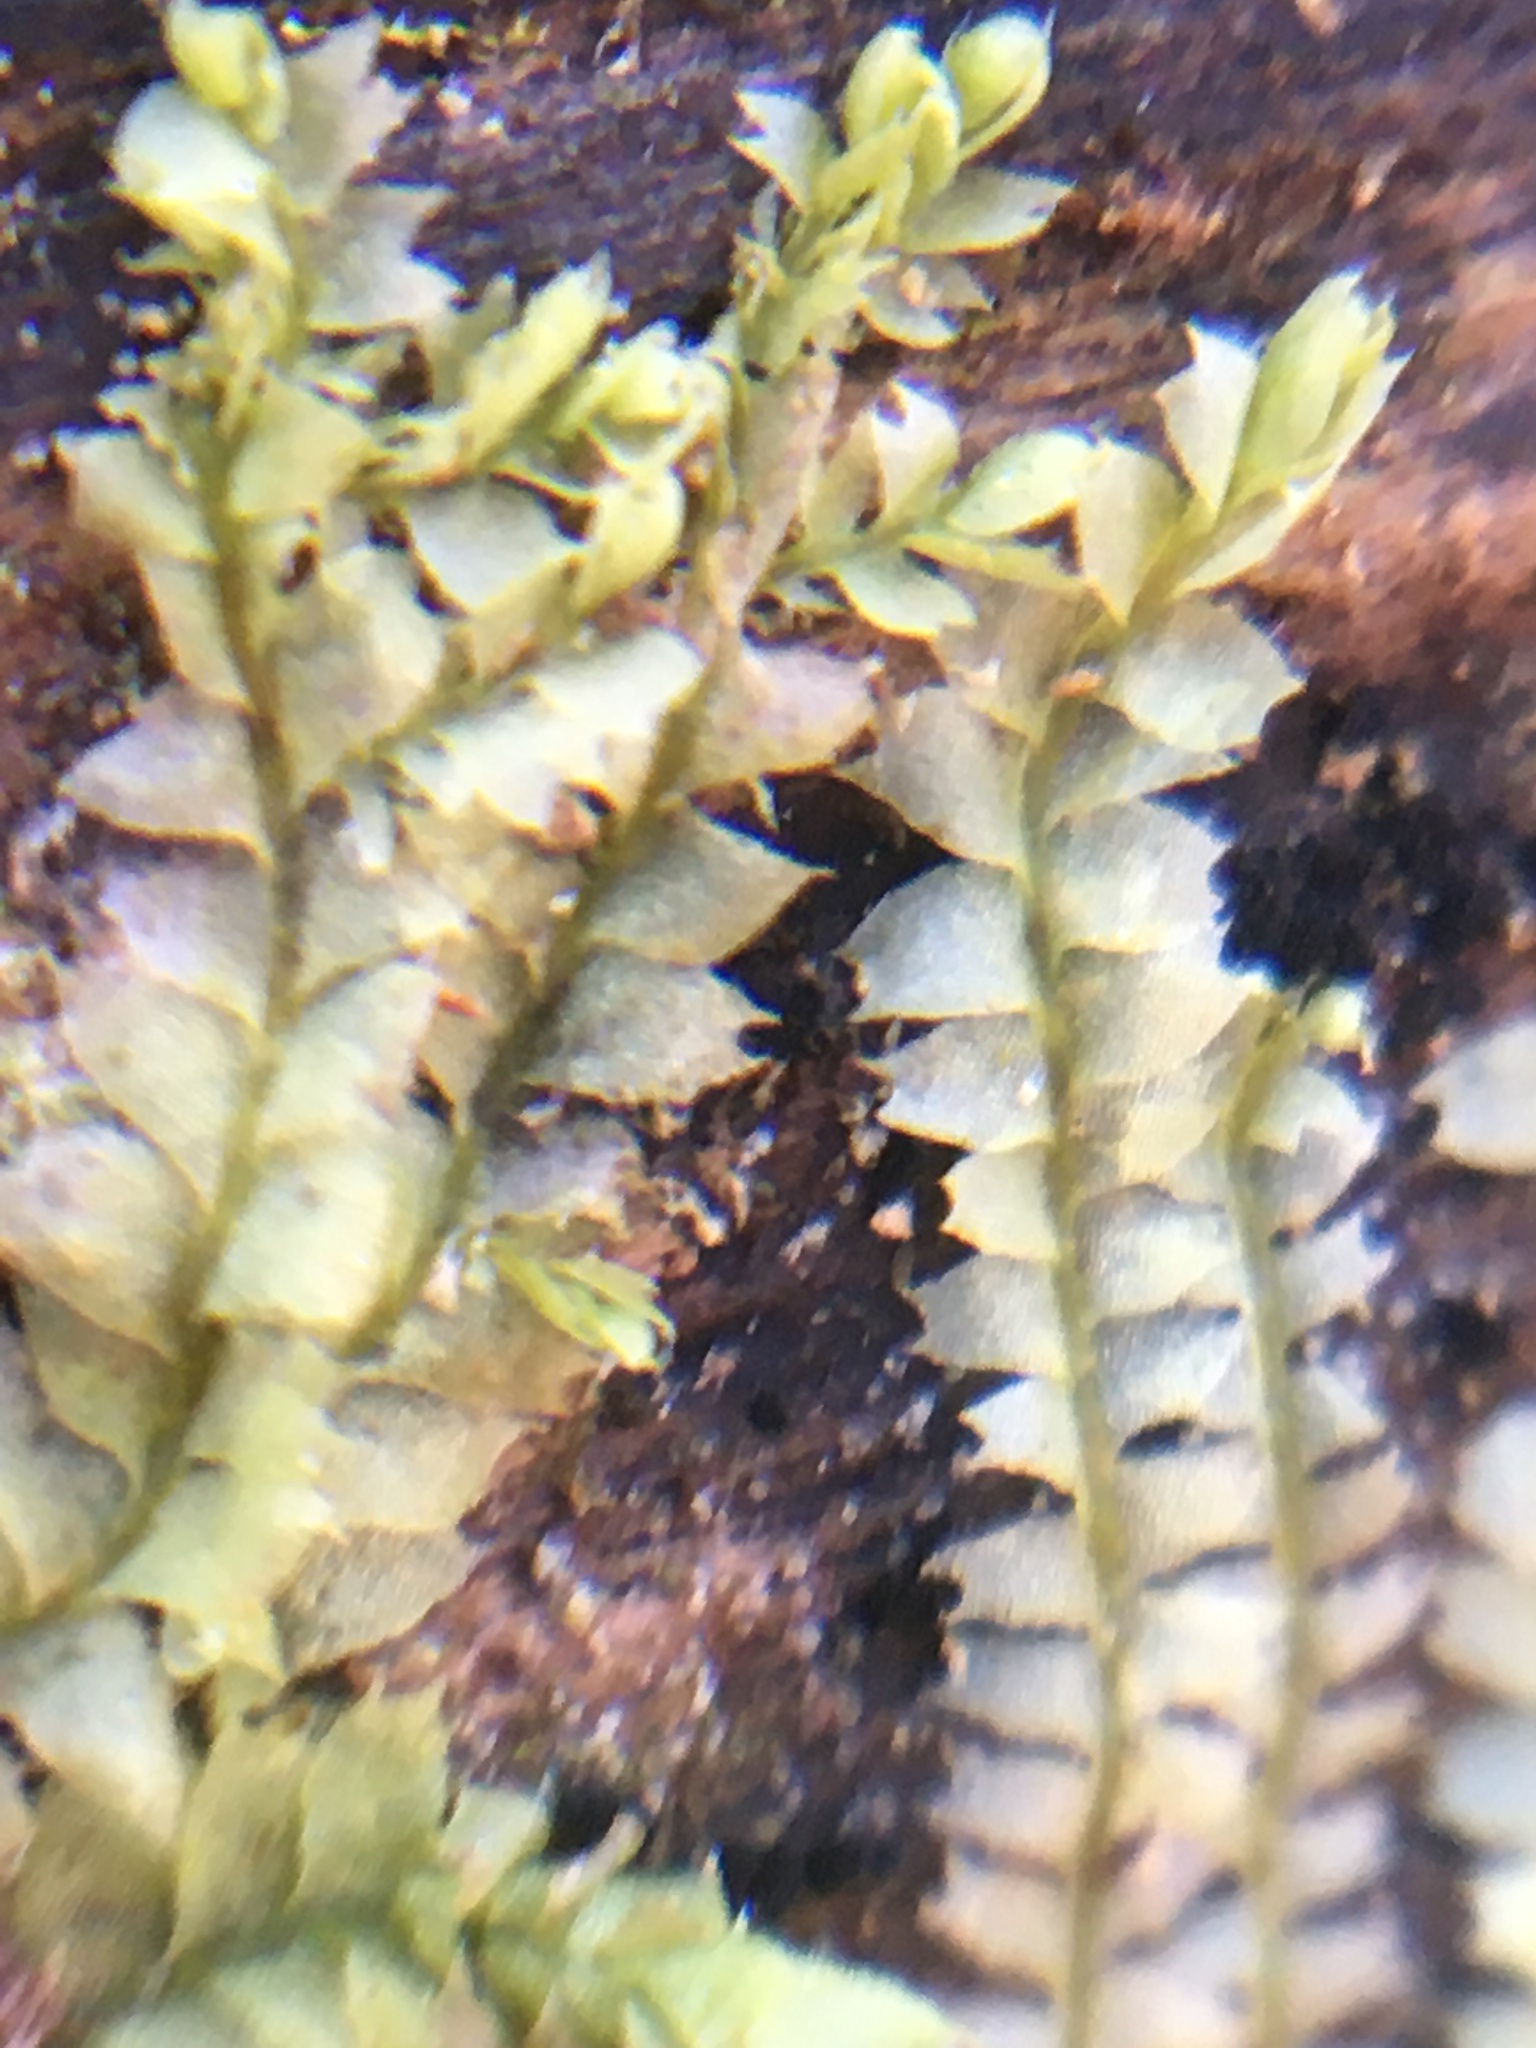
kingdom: Plantae
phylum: Marchantiophyta
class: Jungermanniopsida
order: Jungermanniales
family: Lophocoleaceae
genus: Lophocolea
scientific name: Lophocolea heterophylla
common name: Variable-leaved crestwort
